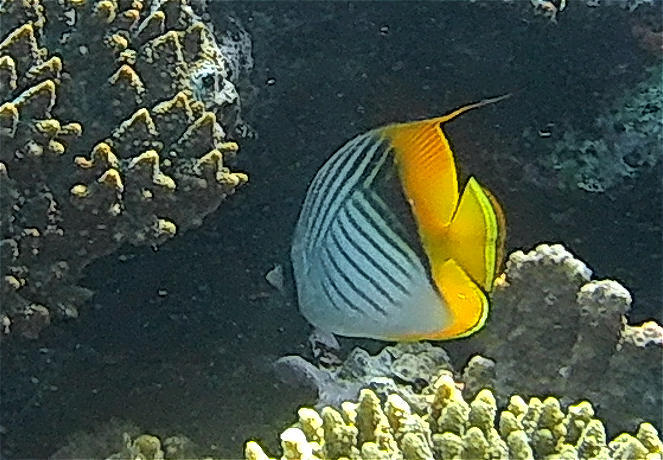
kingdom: Animalia
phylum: Chordata
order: Perciformes
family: Chaetodontidae
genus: Chaetodon
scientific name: Chaetodon auriga
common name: Threadfin butterflyfish
